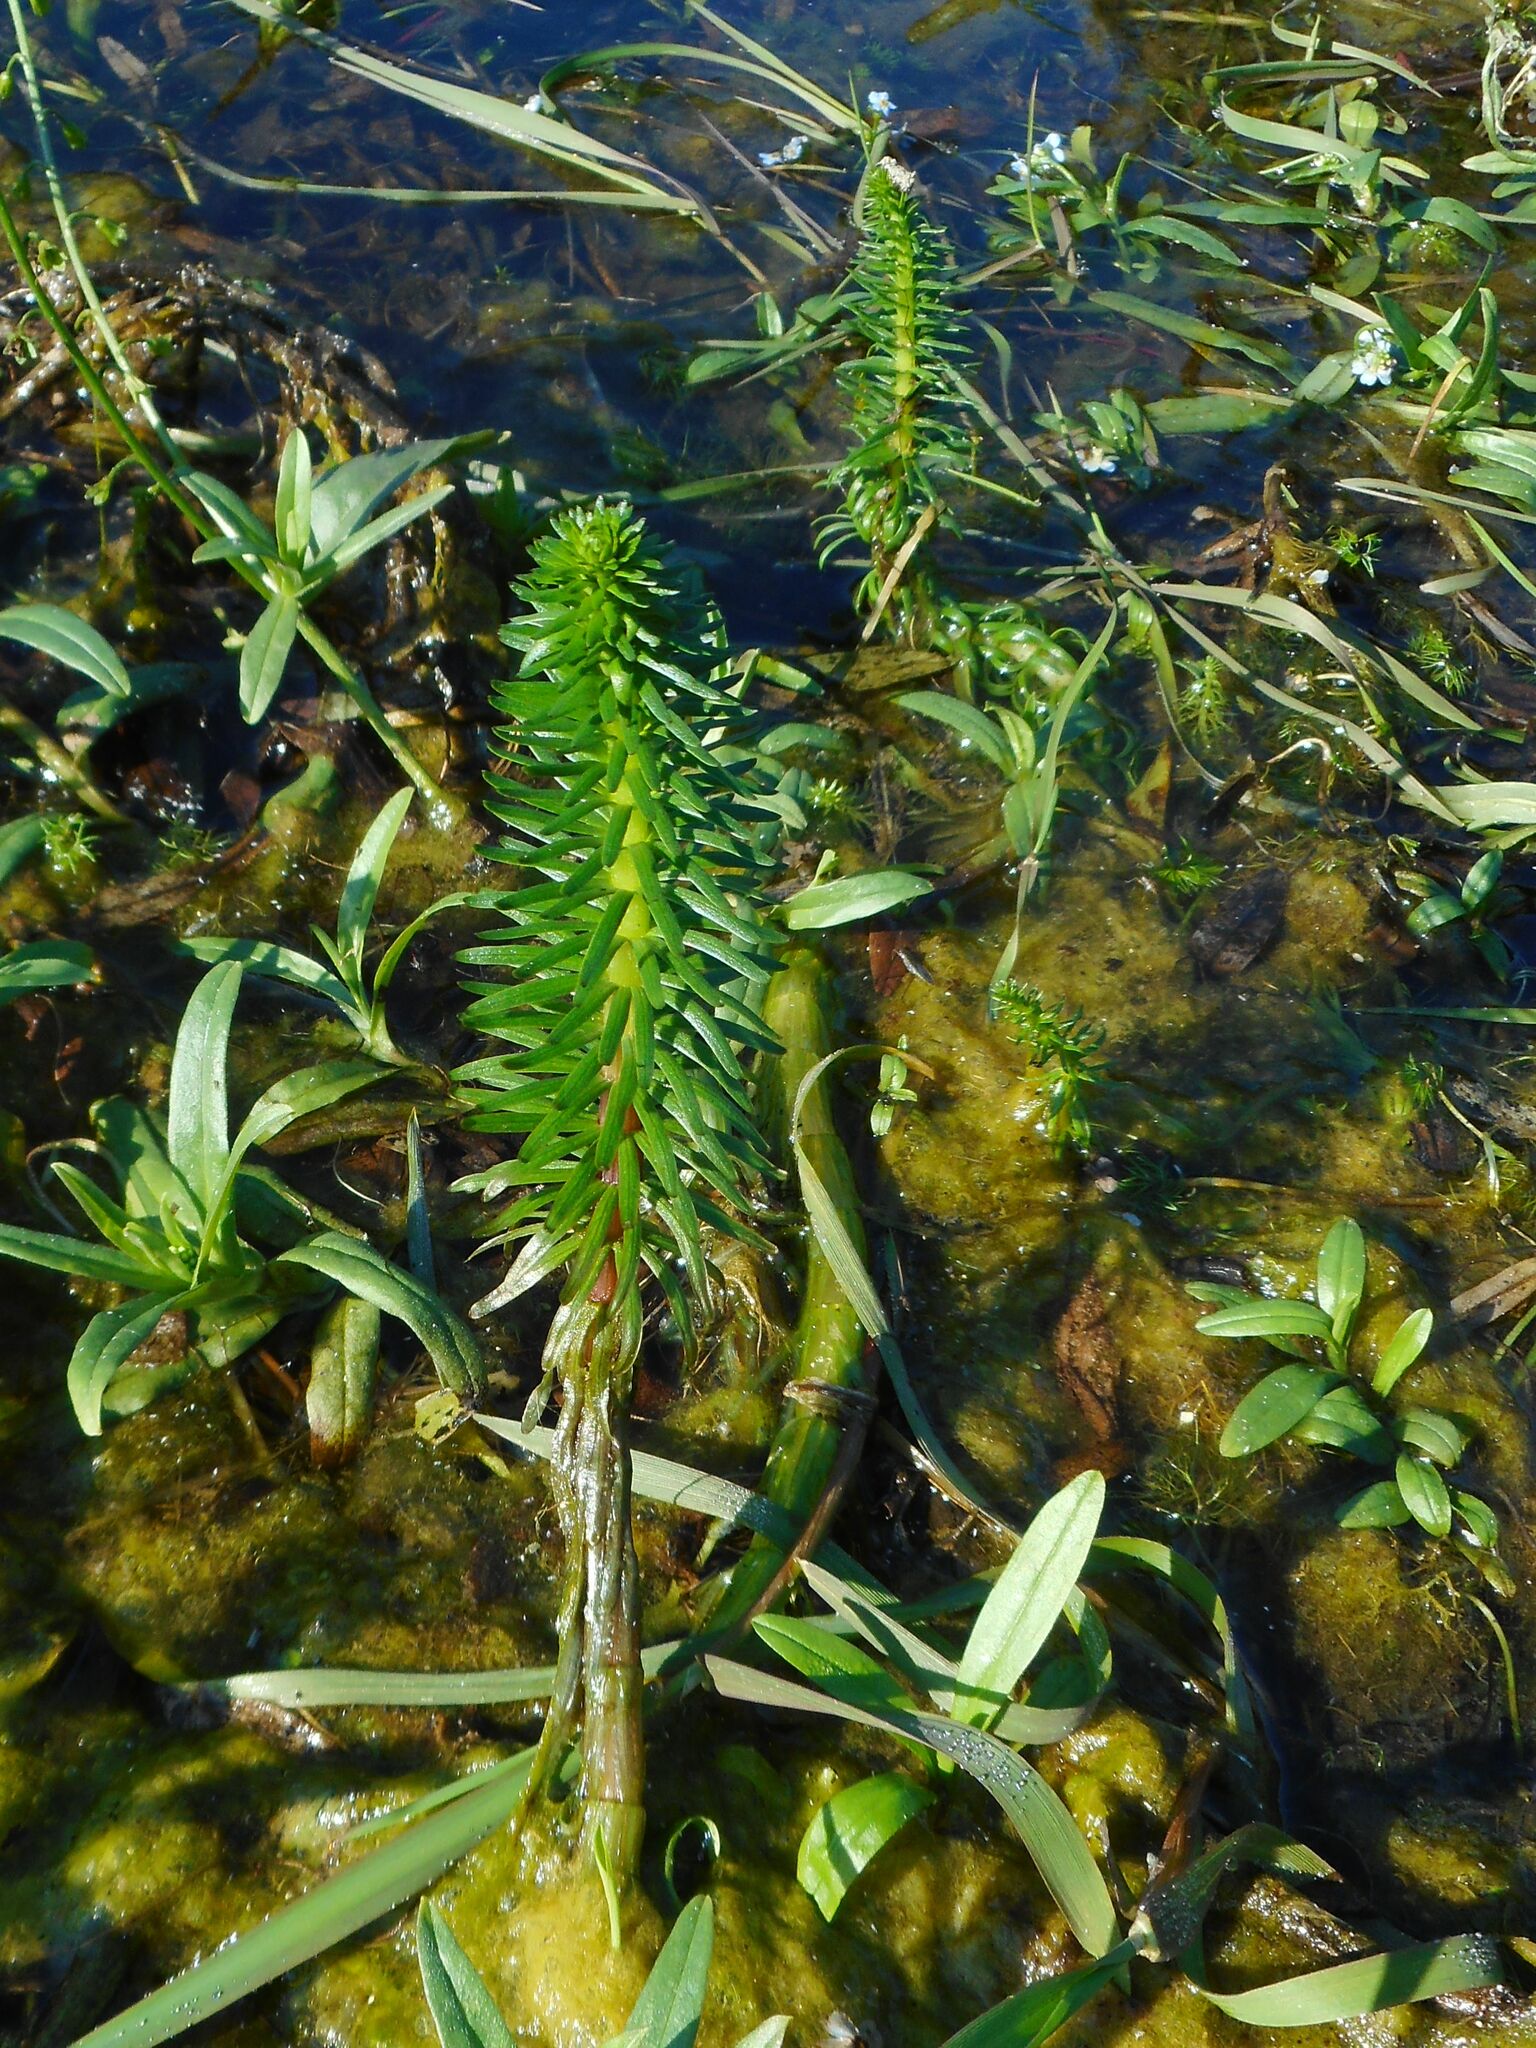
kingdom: Plantae
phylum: Tracheophyta
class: Magnoliopsida
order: Lamiales
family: Plantaginaceae
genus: Hippuris
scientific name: Hippuris vulgaris
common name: Mare's-tail
